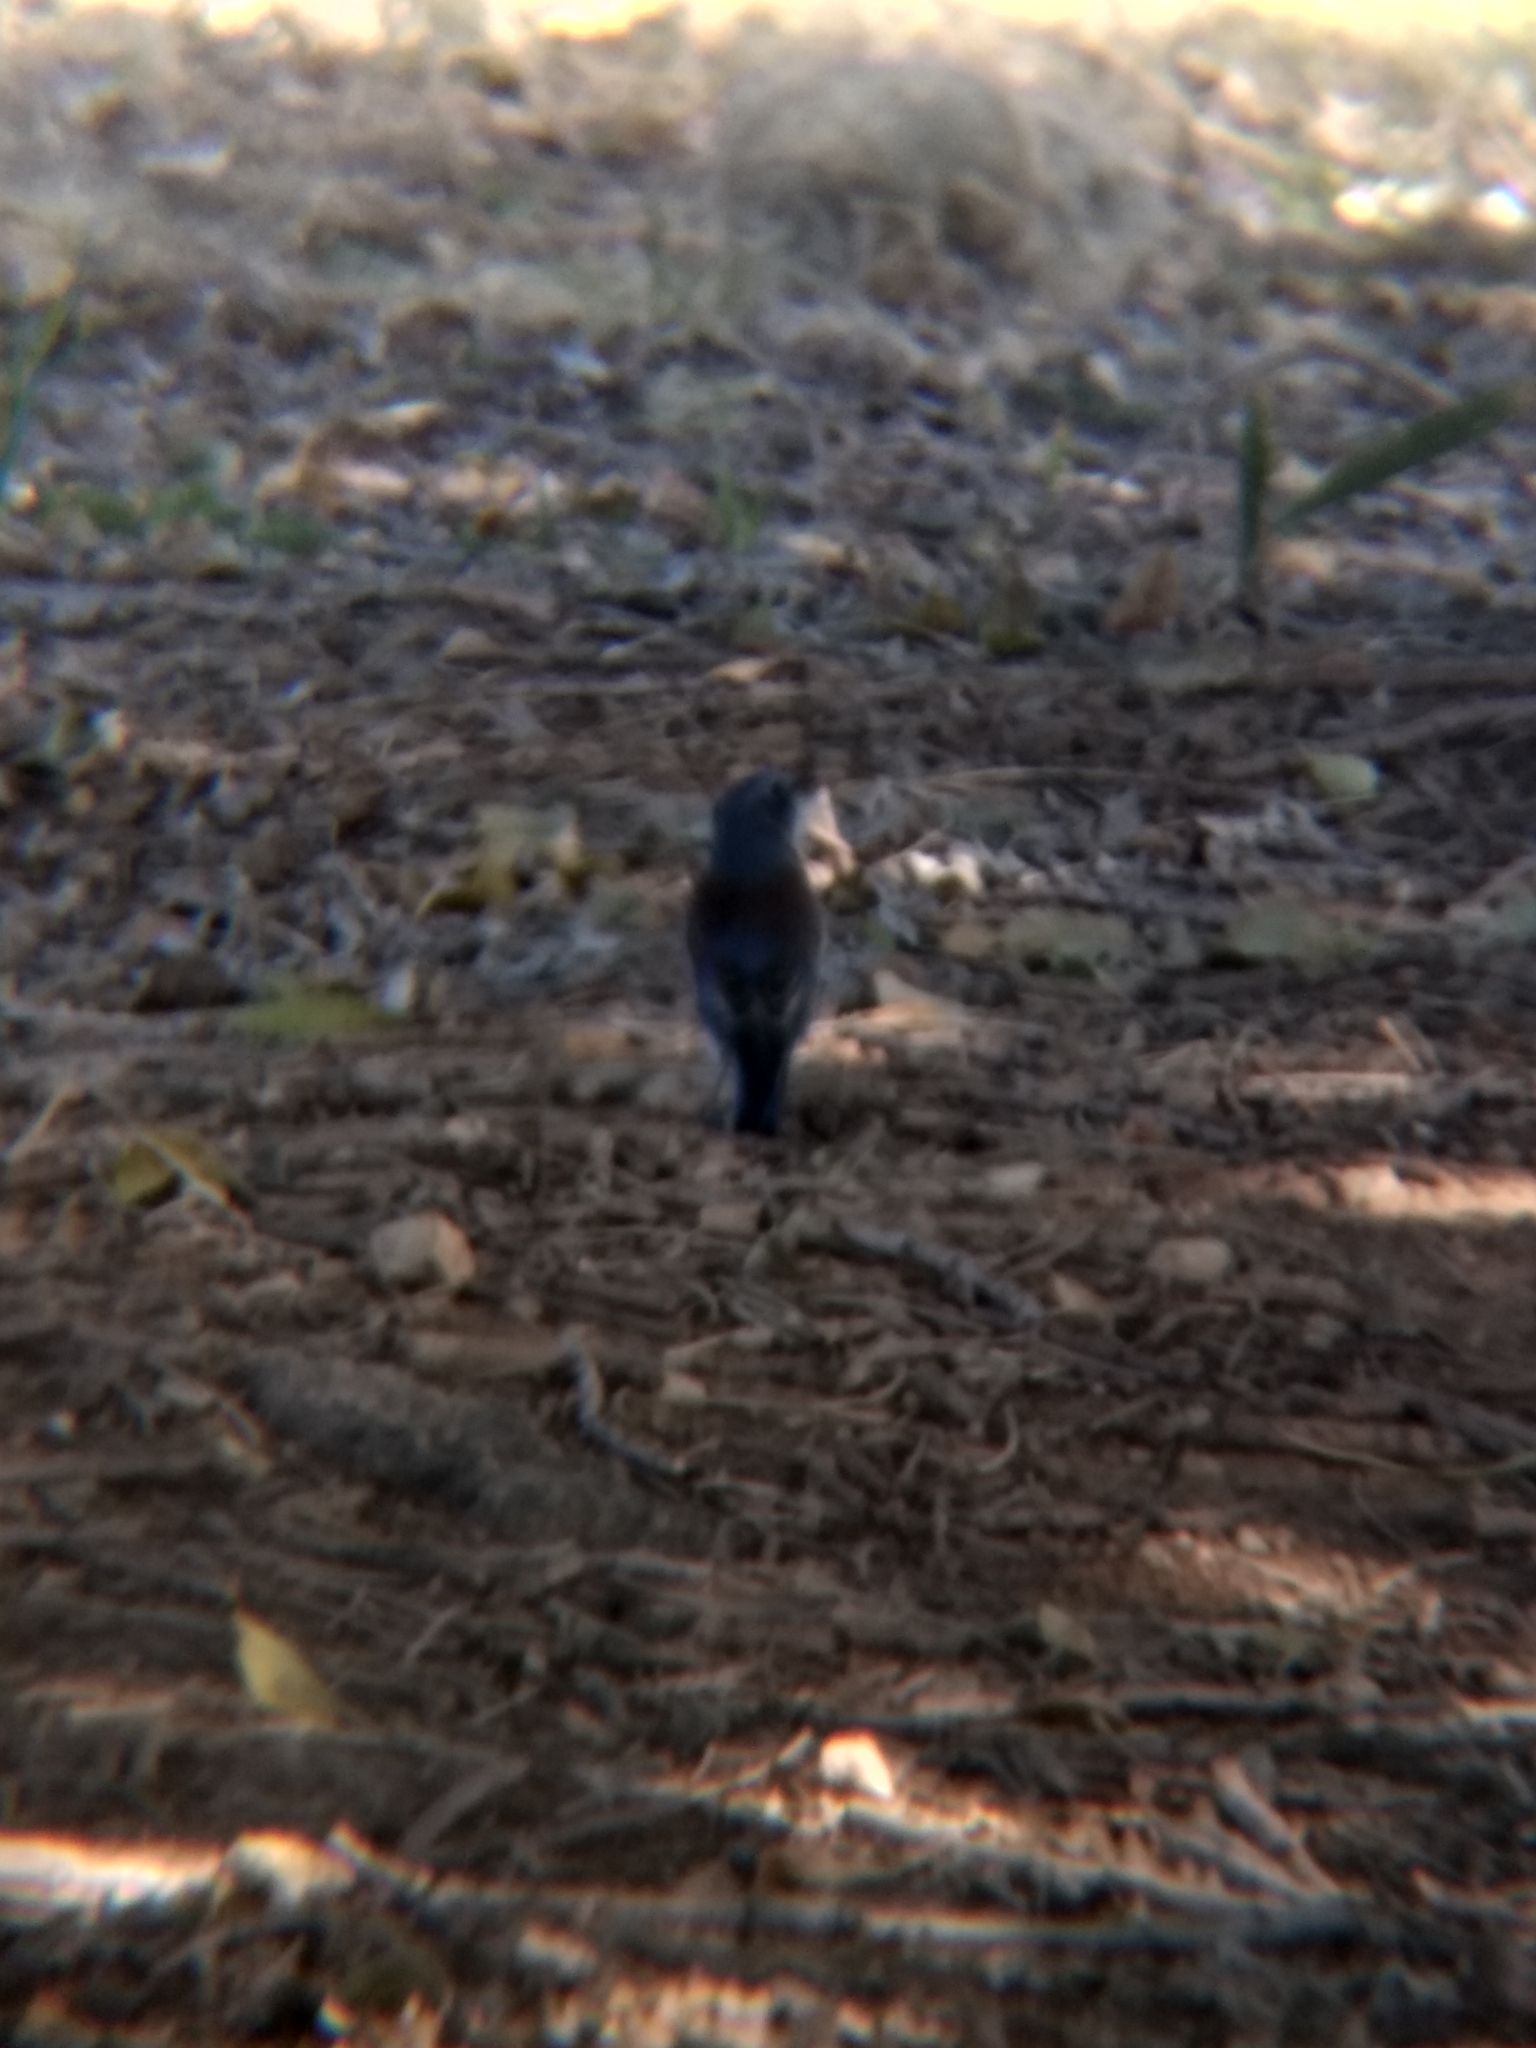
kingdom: Animalia
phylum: Chordata
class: Aves
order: Passeriformes
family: Turdidae
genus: Sialia
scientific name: Sialia mexicana
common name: Western bluebird
